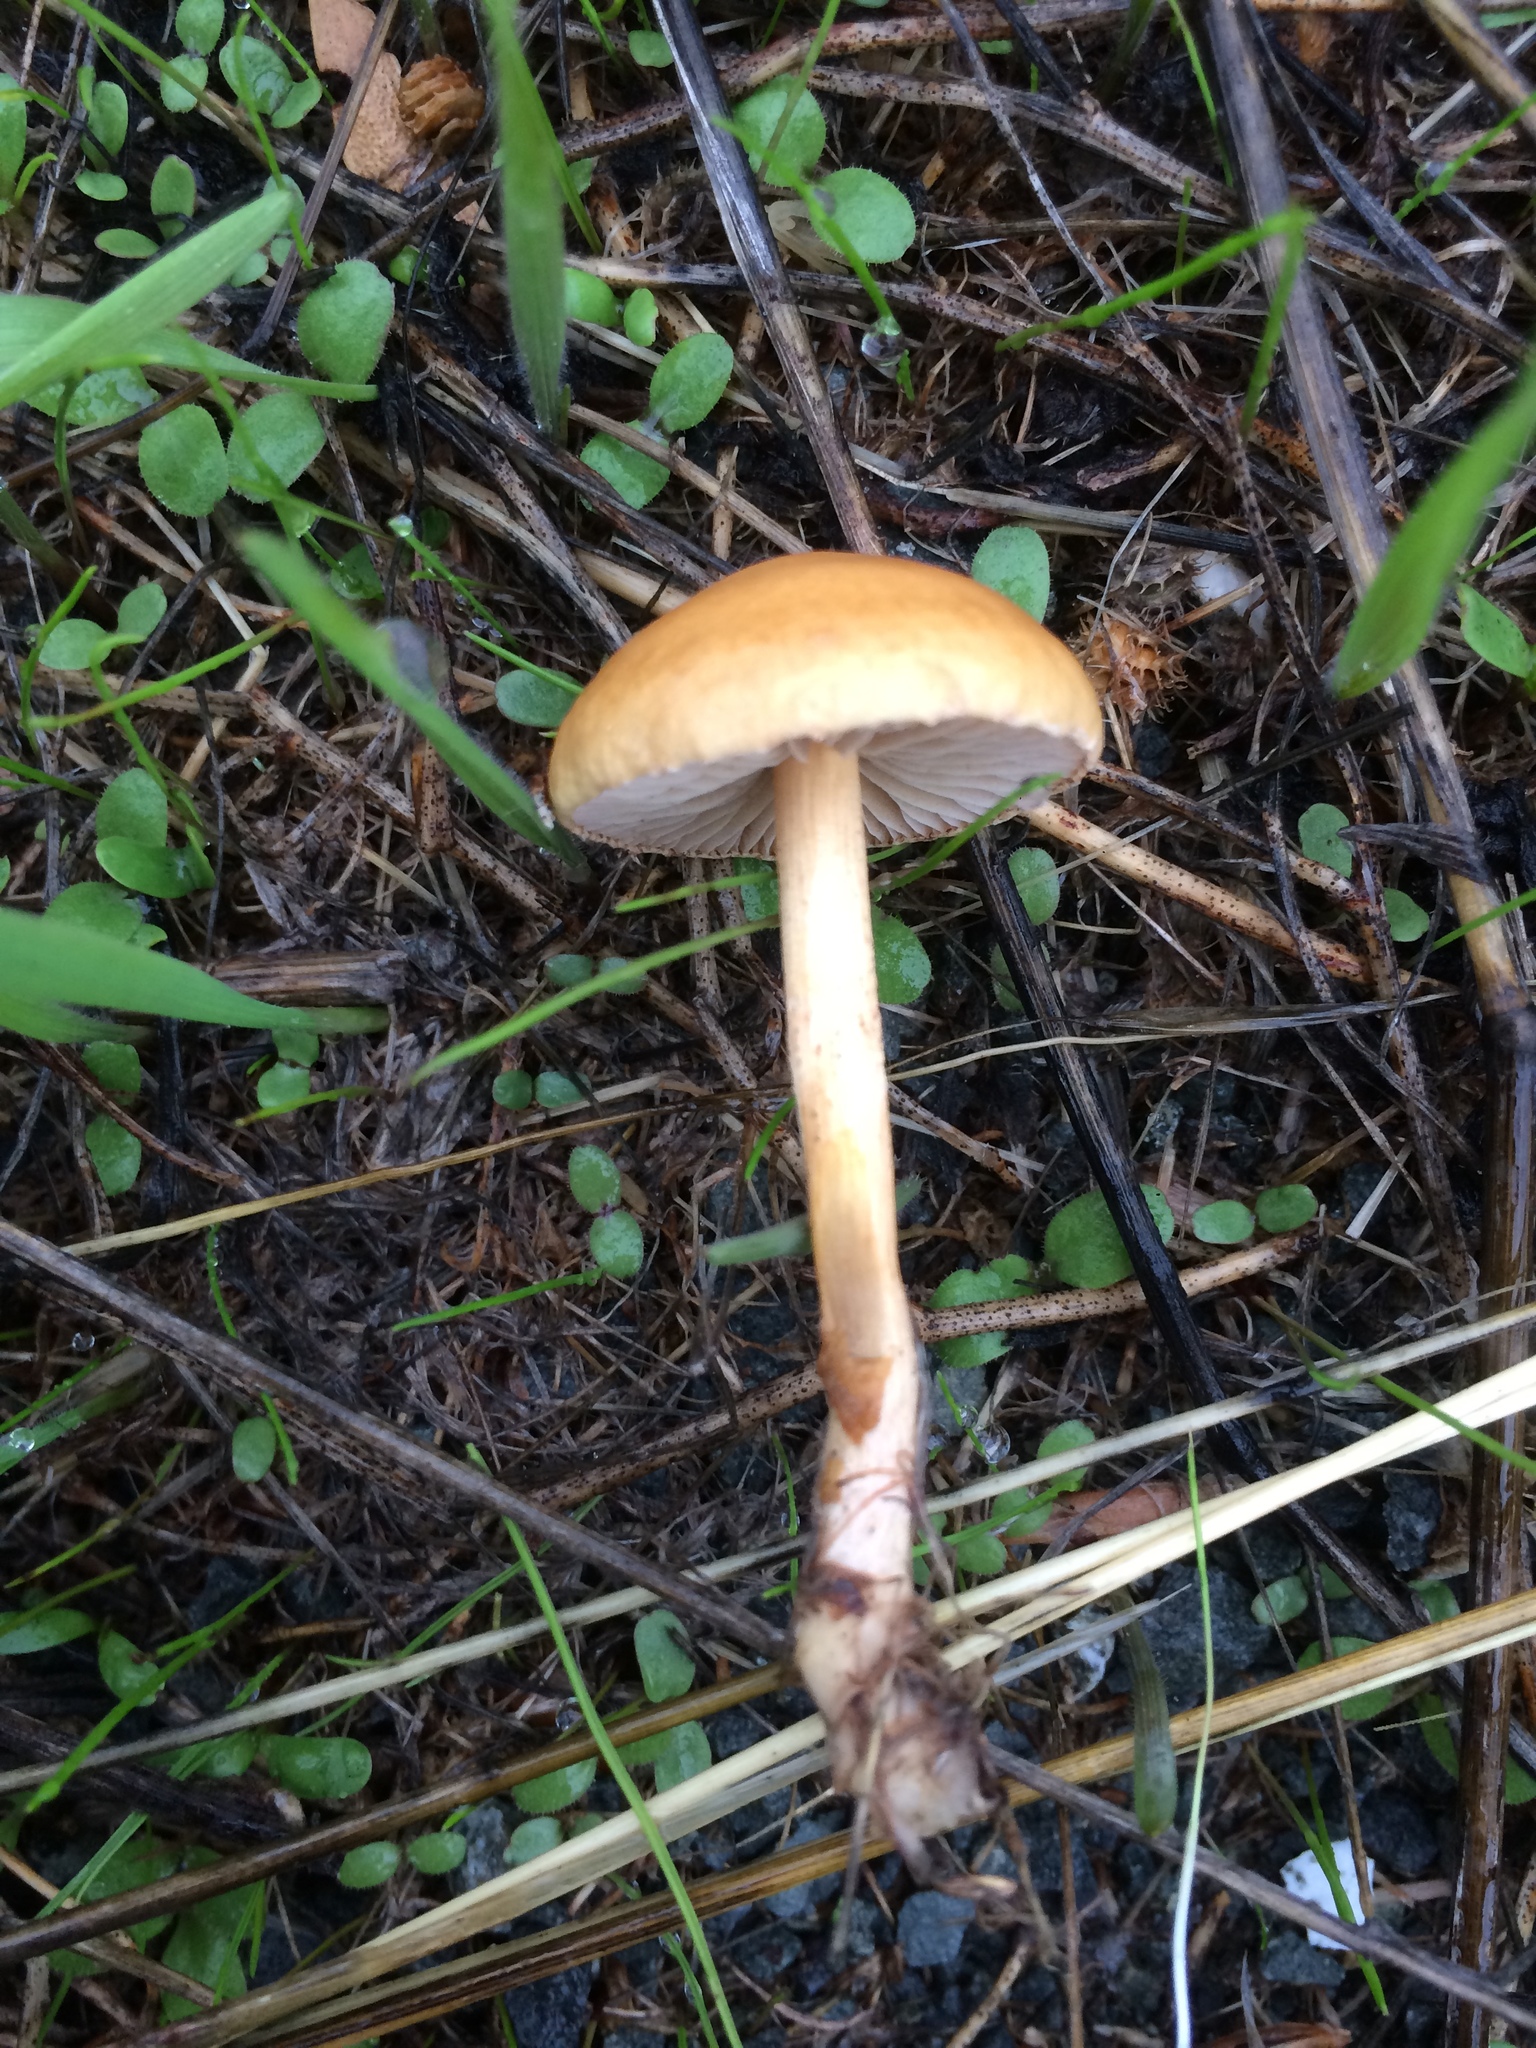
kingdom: Fungi
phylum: Basidiomycota
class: Agaricomycetes
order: Agaricales
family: Strophariaceae
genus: Agrocybe
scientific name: Agrocybe pediades
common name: Common fieldcap
